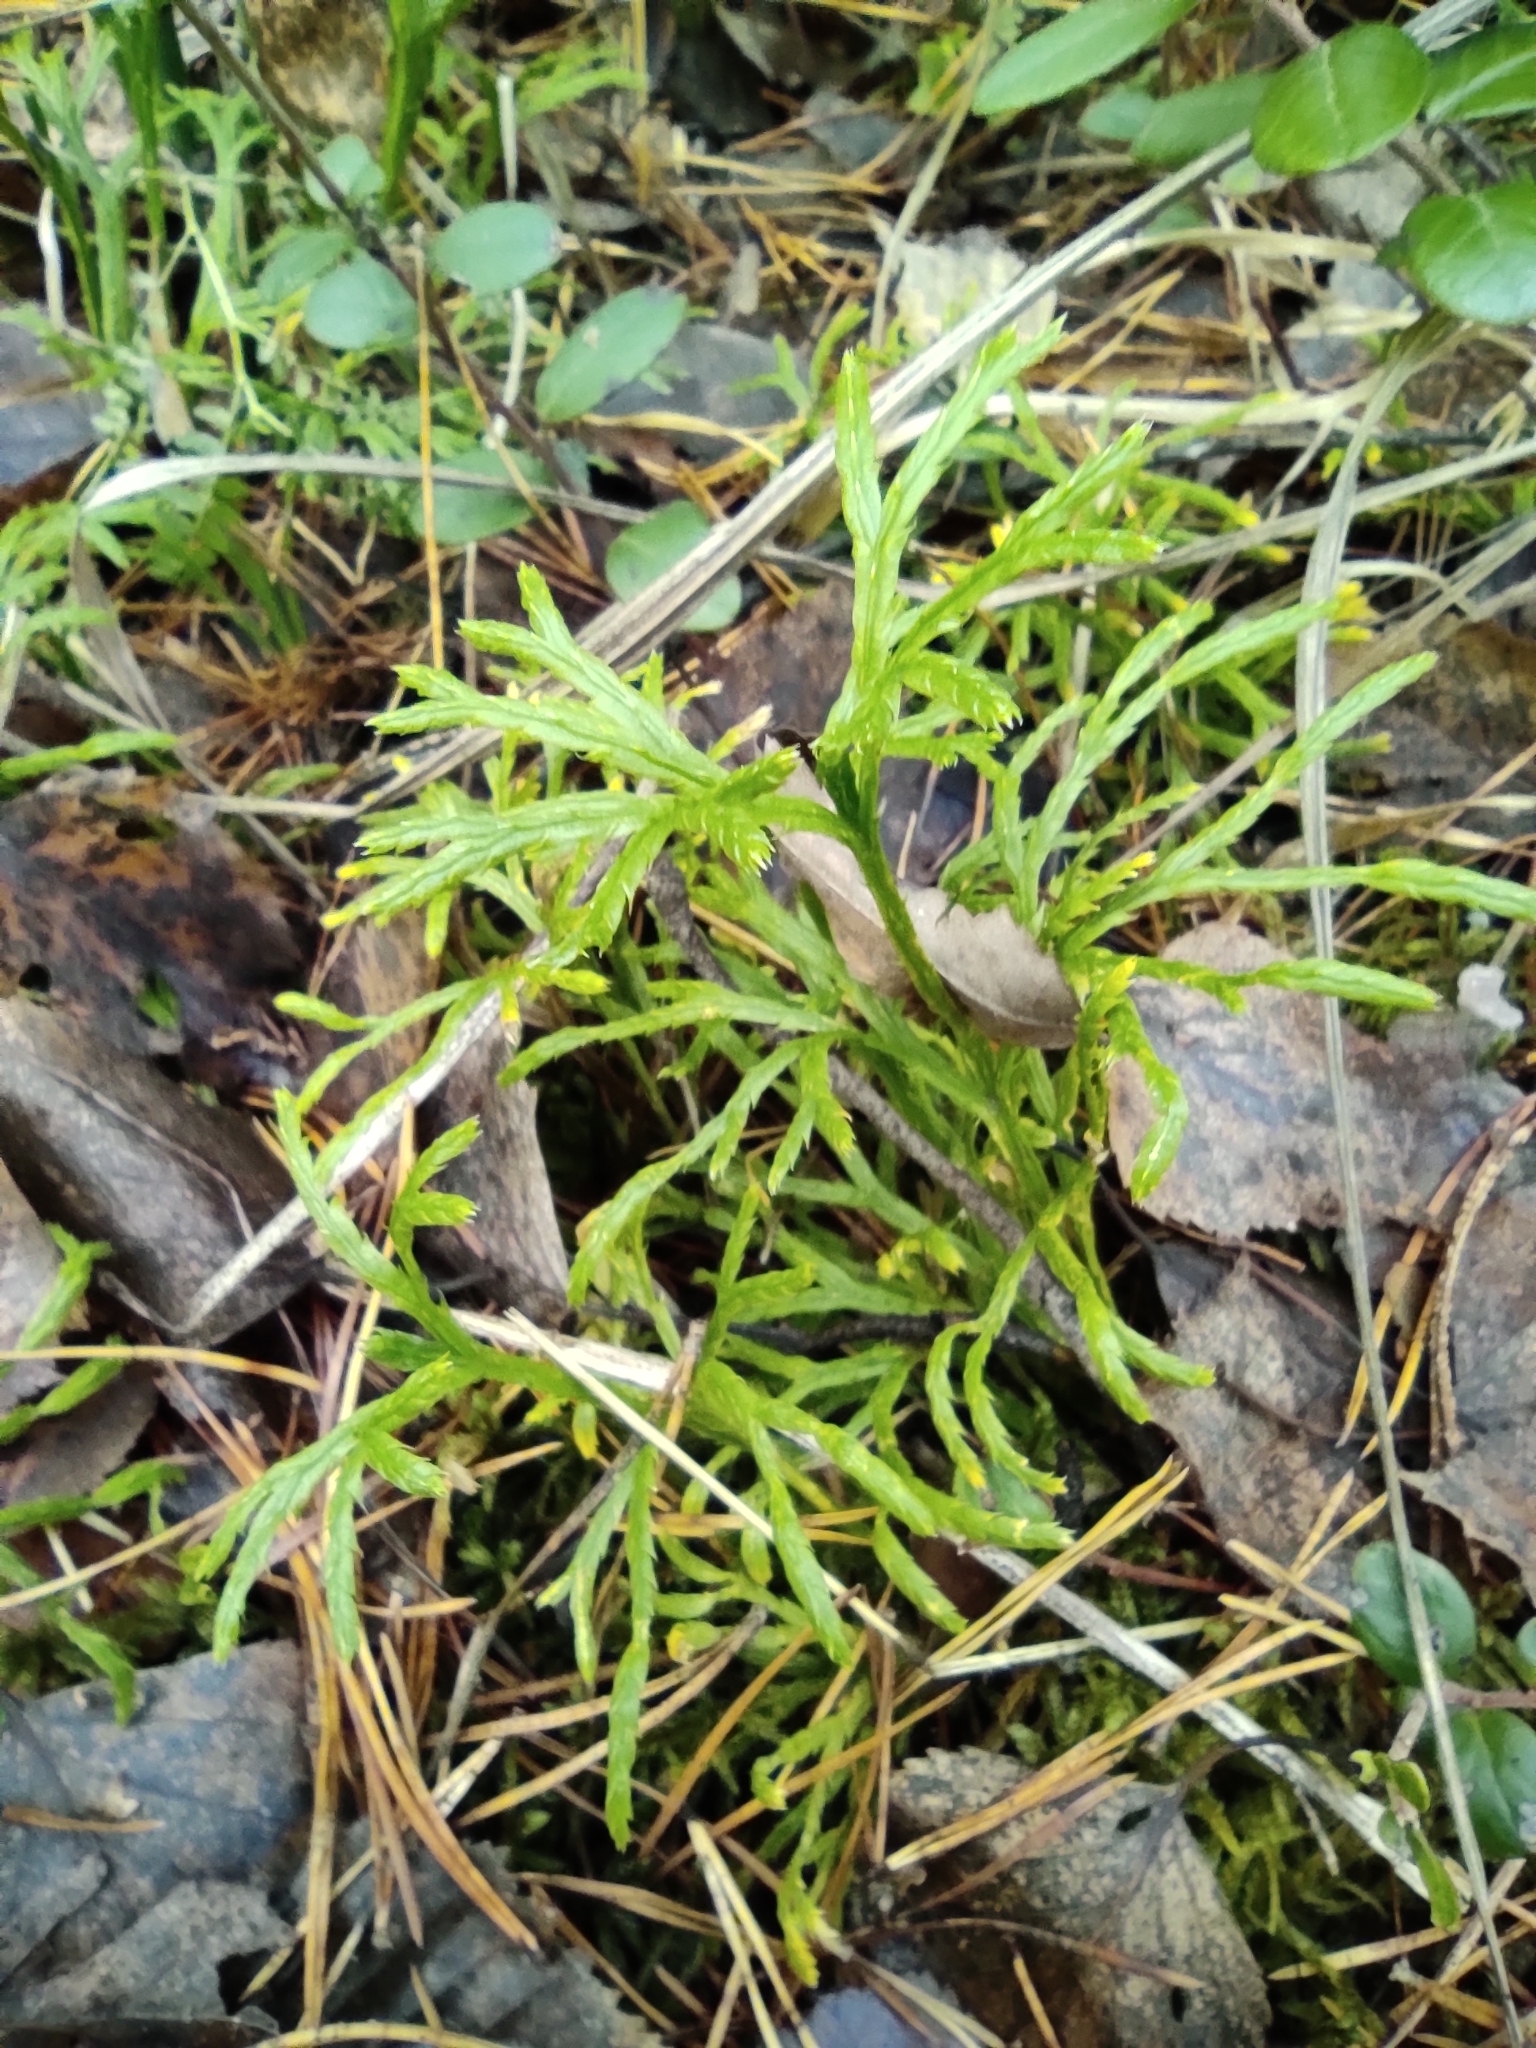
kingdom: Plantae
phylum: Tracheophyta
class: Lycopodiopsida
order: Lycopodiales
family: Lycopodiaceae
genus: Diphasiastrum
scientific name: Diphasiastrum complanatum
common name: Northern running-pine
